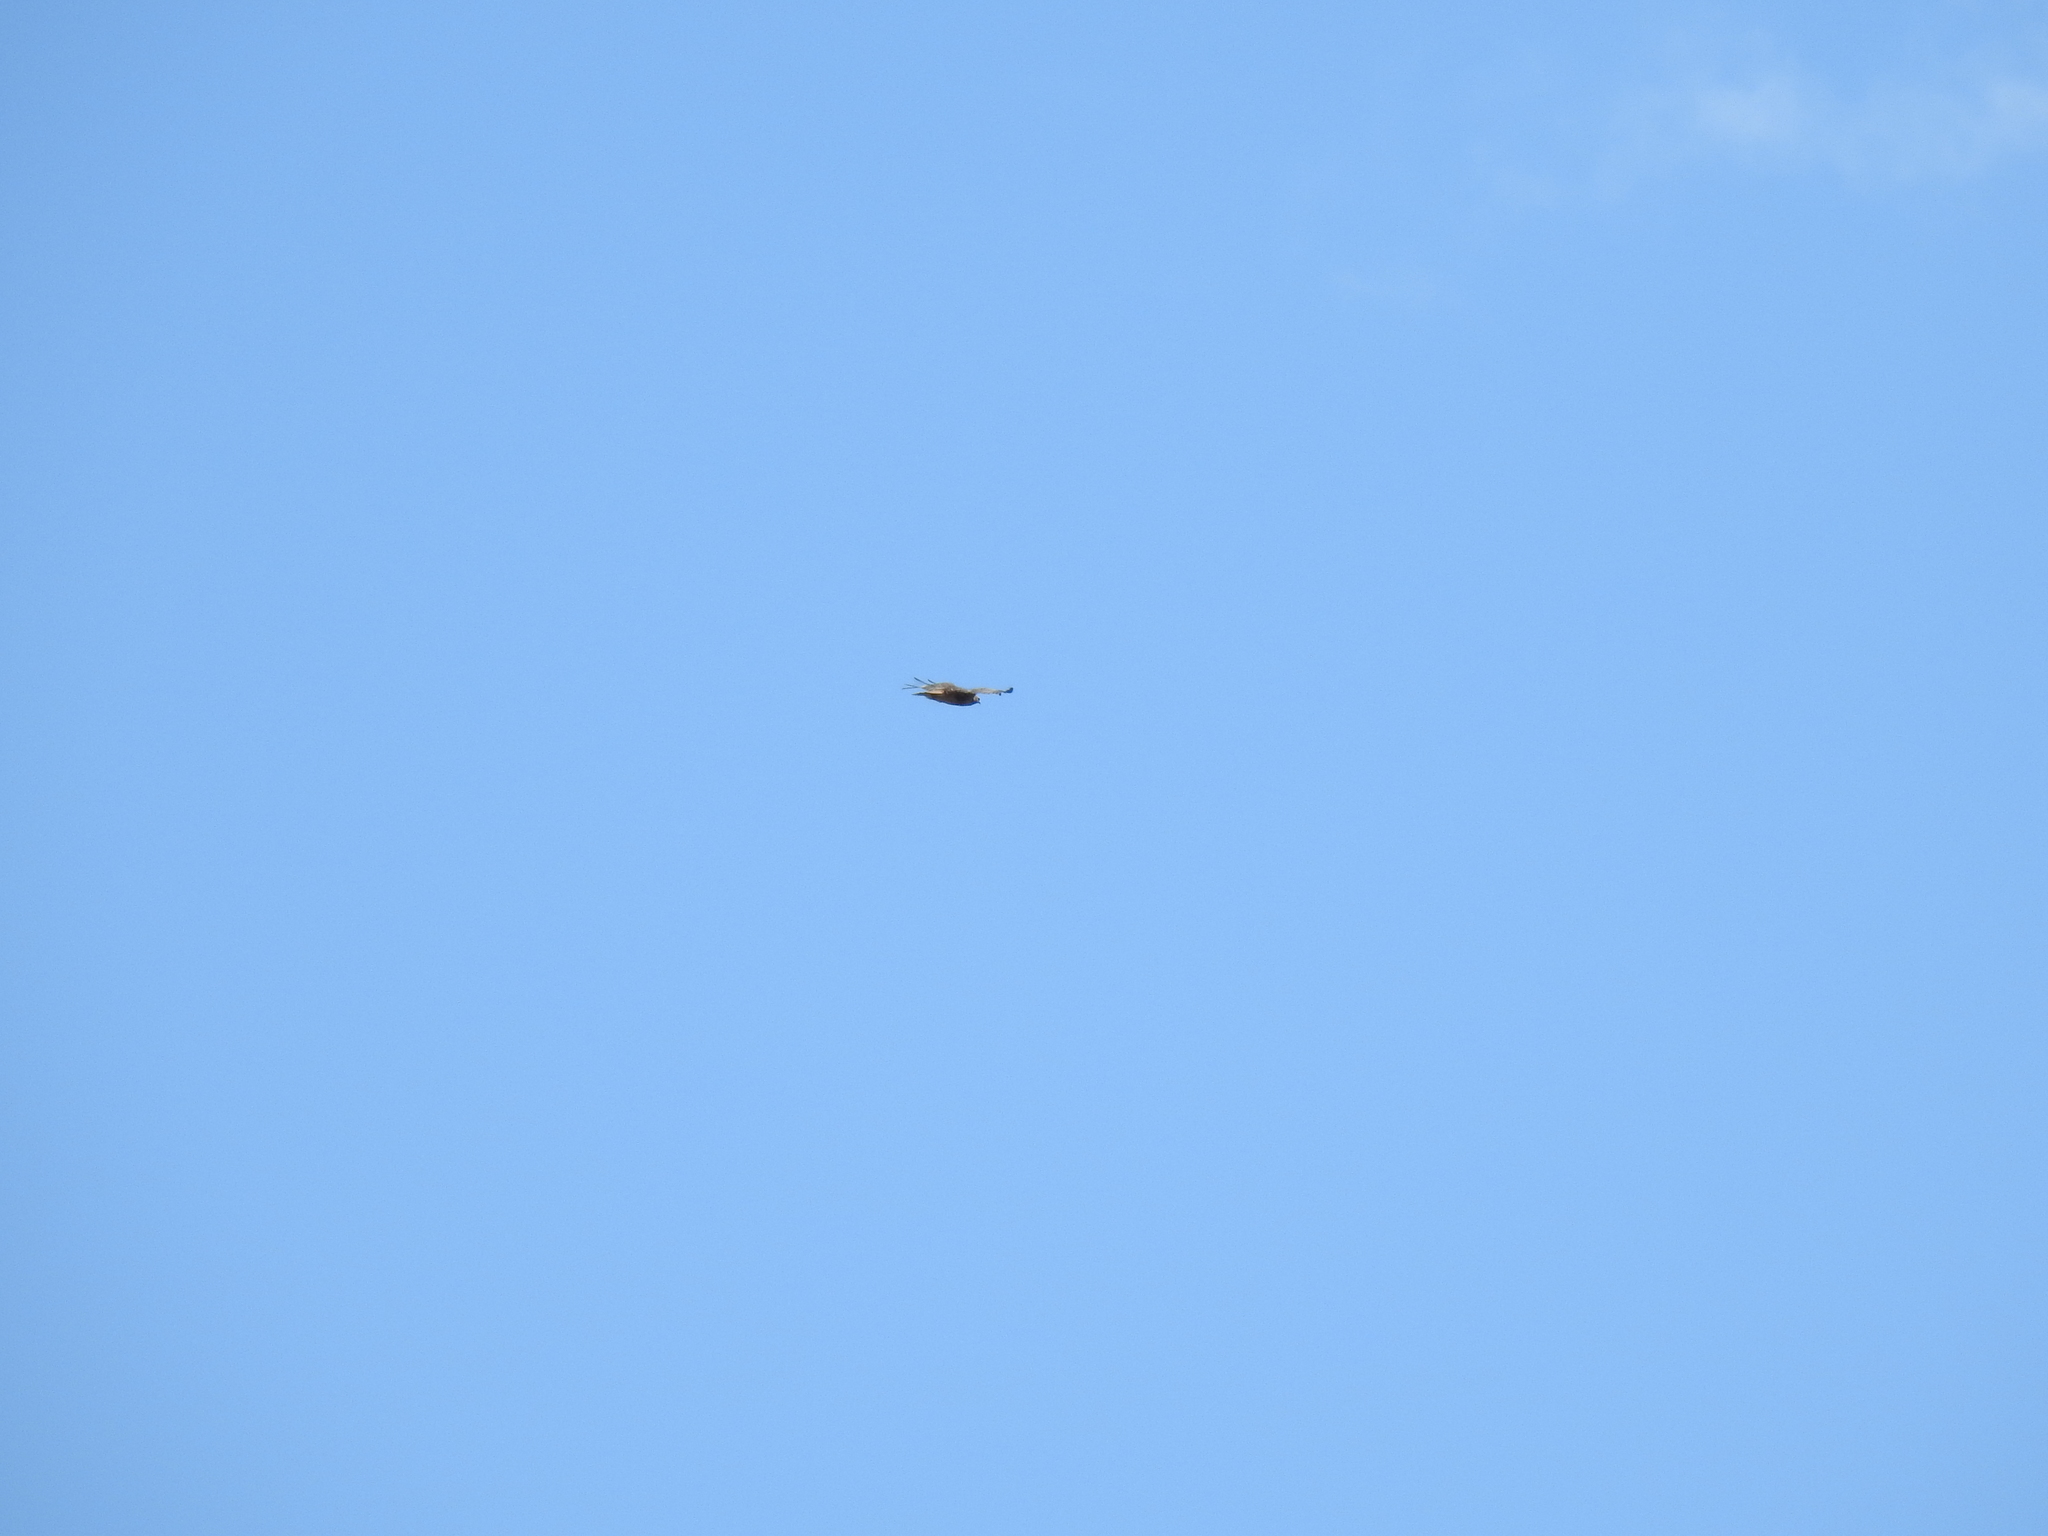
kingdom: Animalia
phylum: Chordata
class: Aves
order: Accipitriformes
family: Accipitridae
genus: Buteo
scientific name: Buteo jamaicensis
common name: Red-tailed hawk
